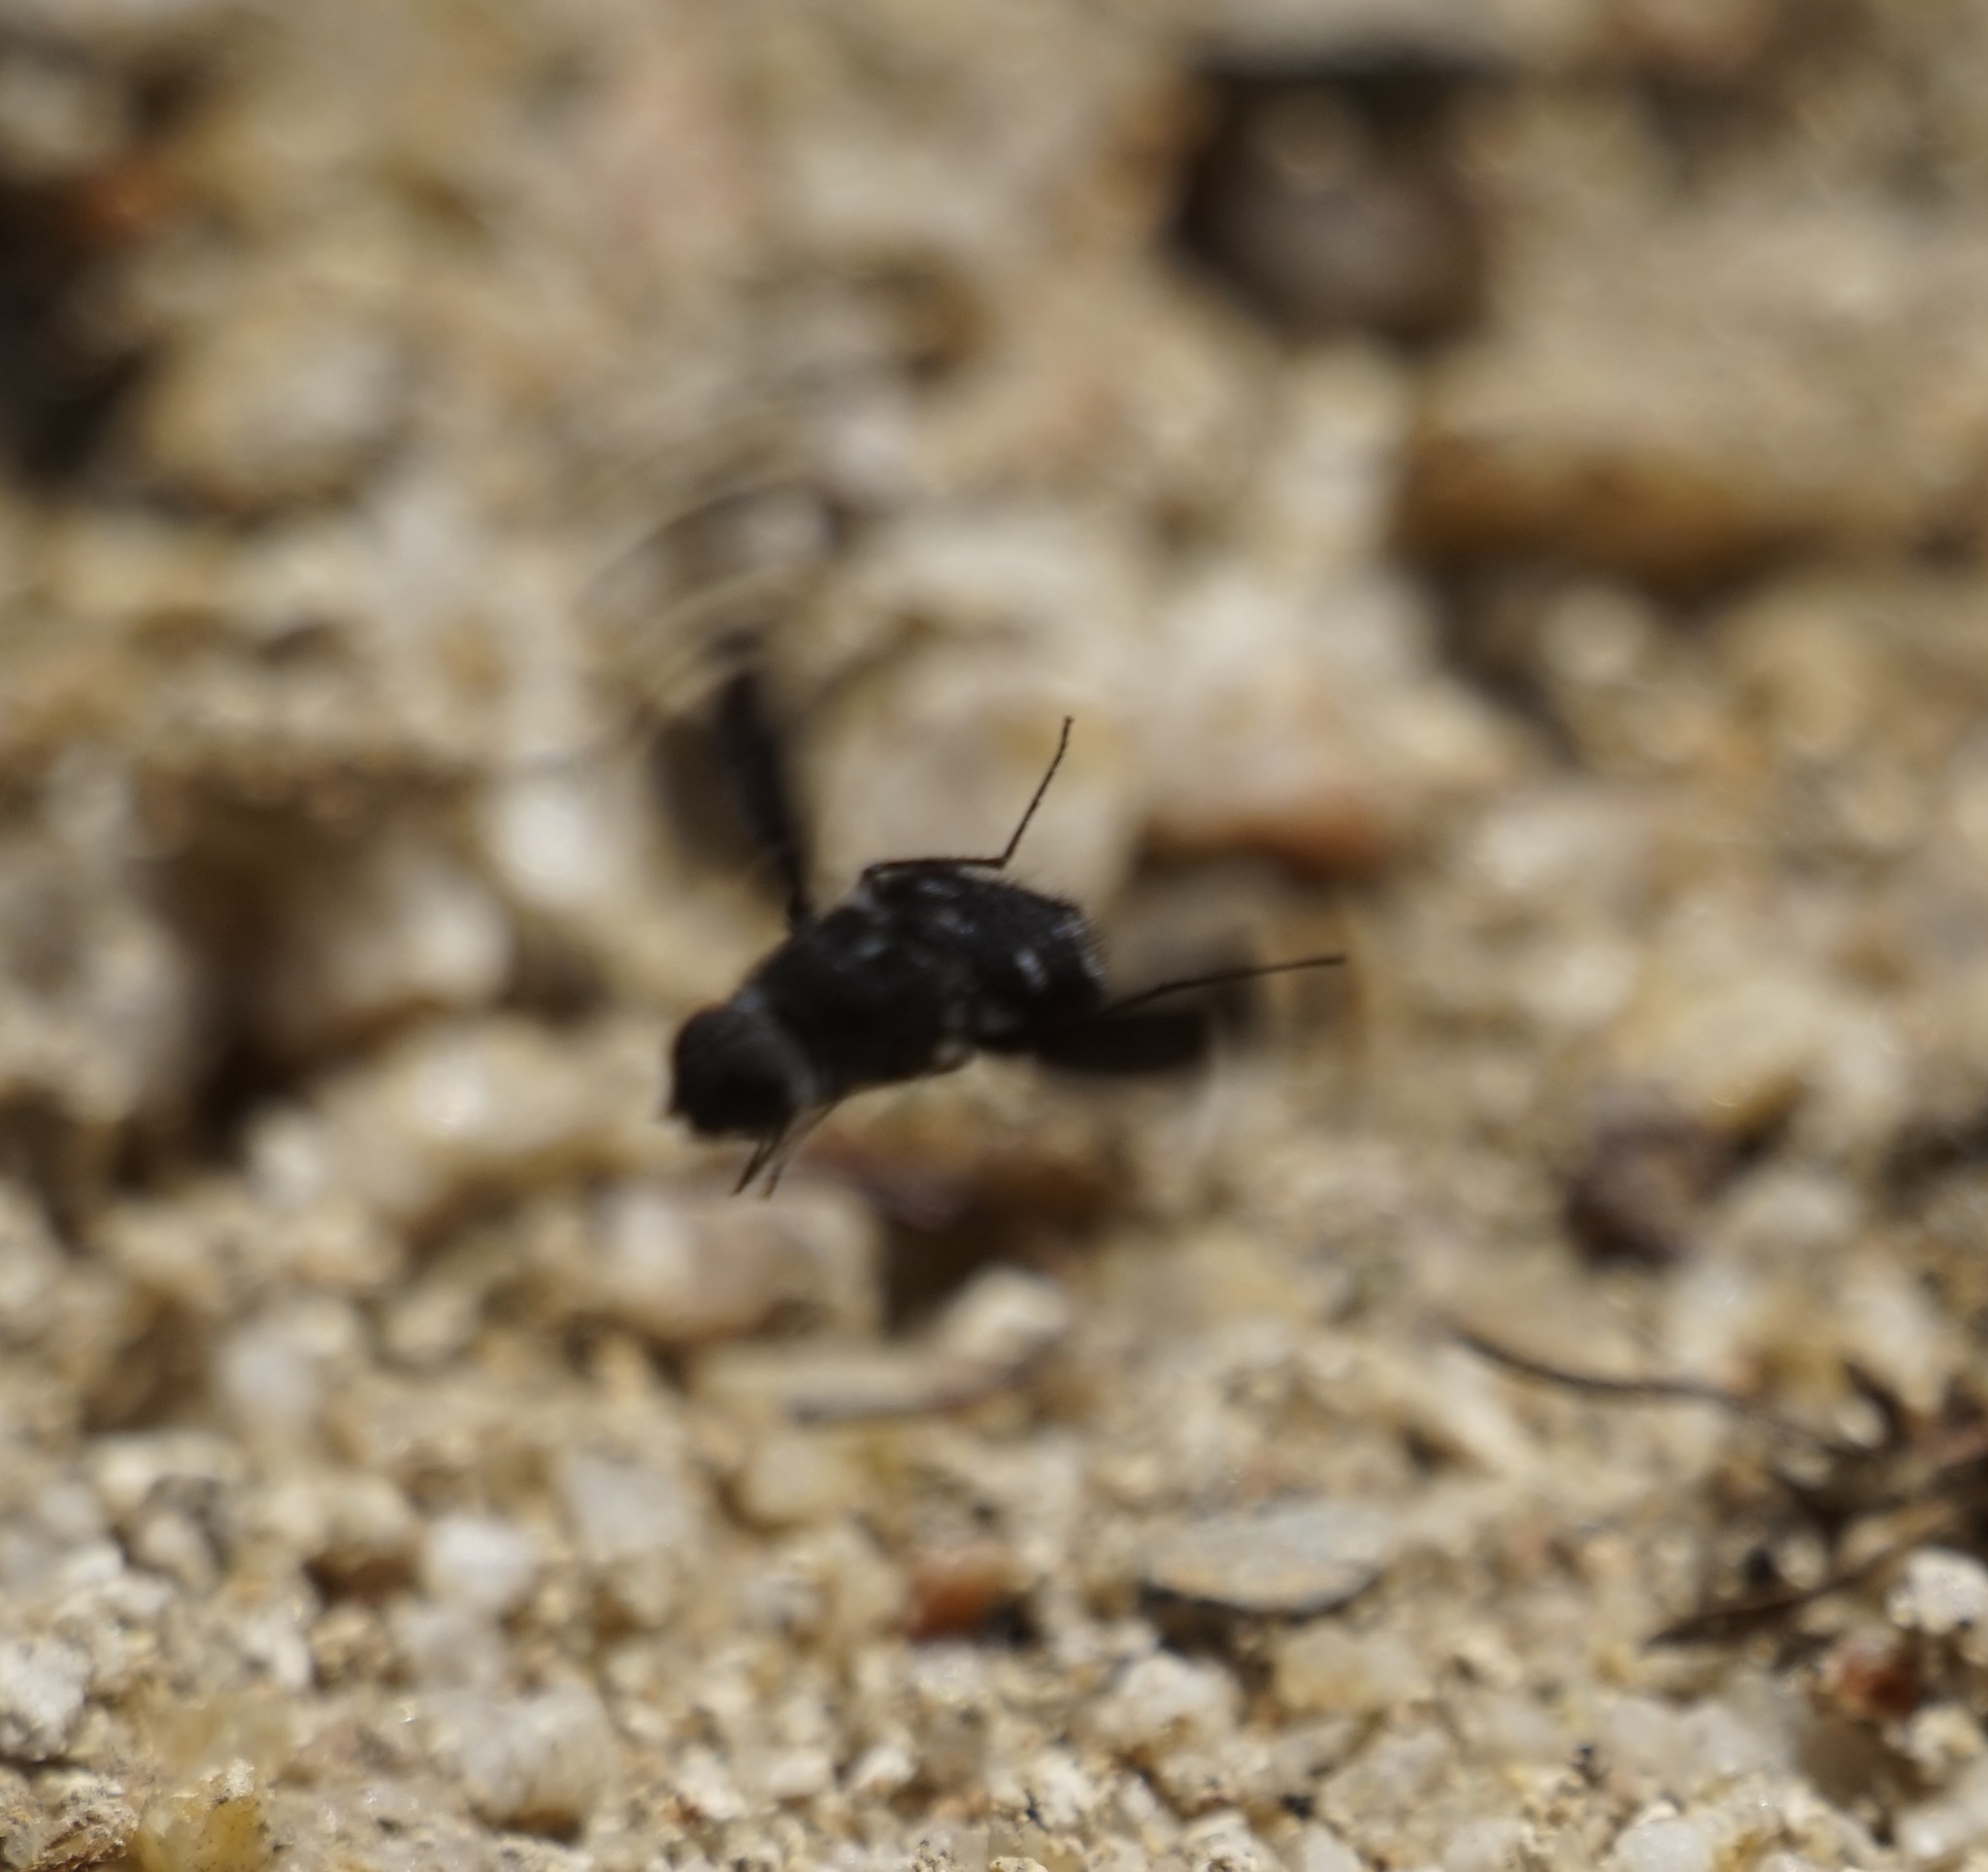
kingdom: Animalia
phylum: Arthropoda
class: Insecta
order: Diptera
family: Bombyliidae
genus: Anthrax
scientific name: Anthrax maculata
